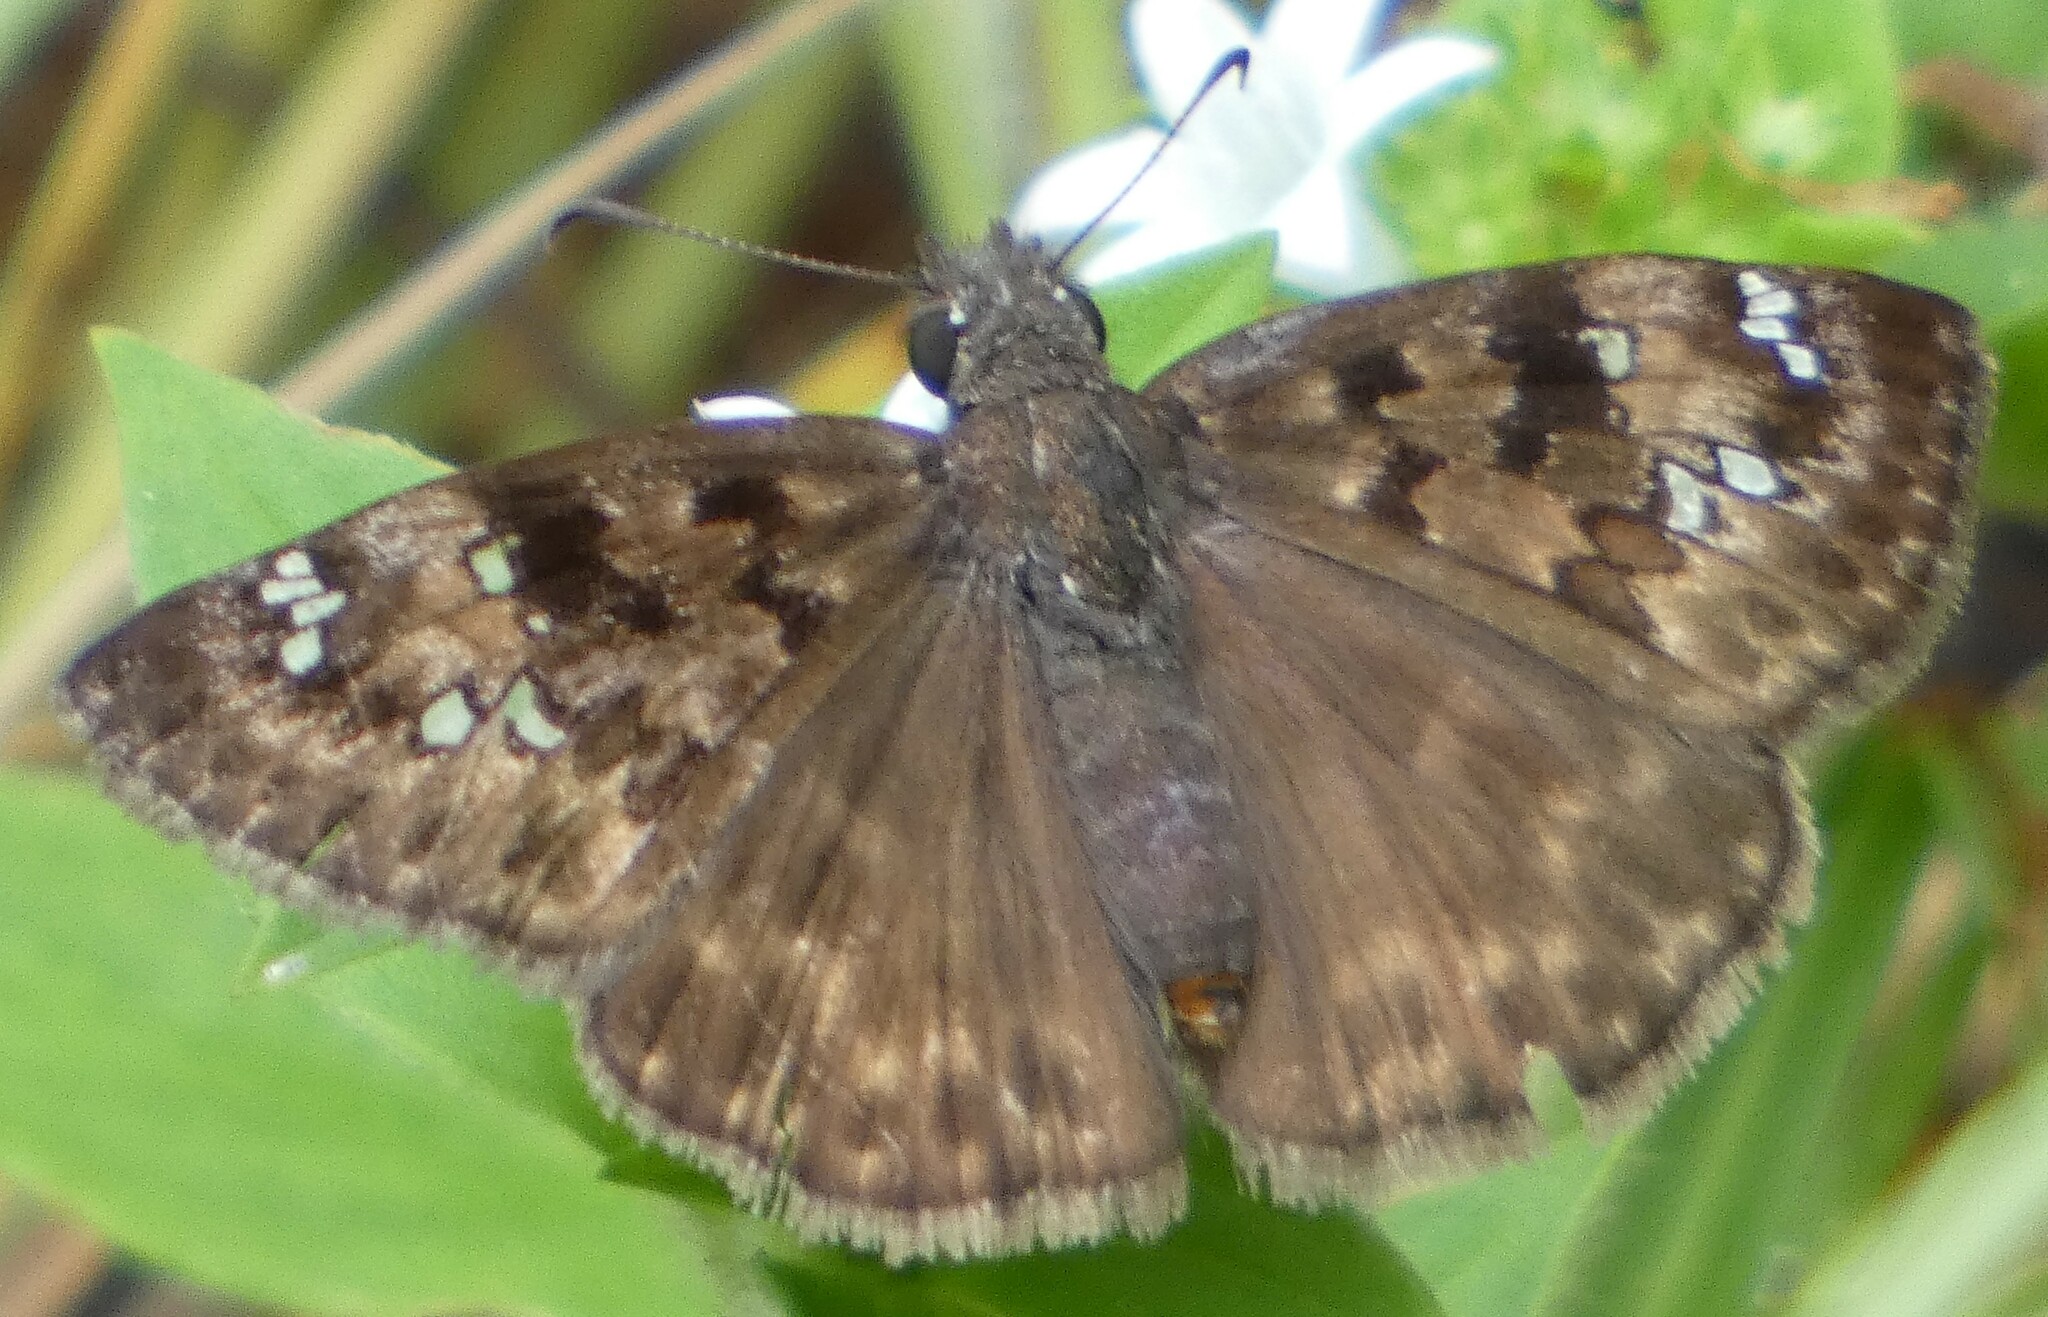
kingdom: Animalia
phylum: Arthropoda
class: Insecta
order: Lepidoptera
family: Hesperiidae
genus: Erynnis
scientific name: Erynnis horatius
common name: Horace's duskywing
